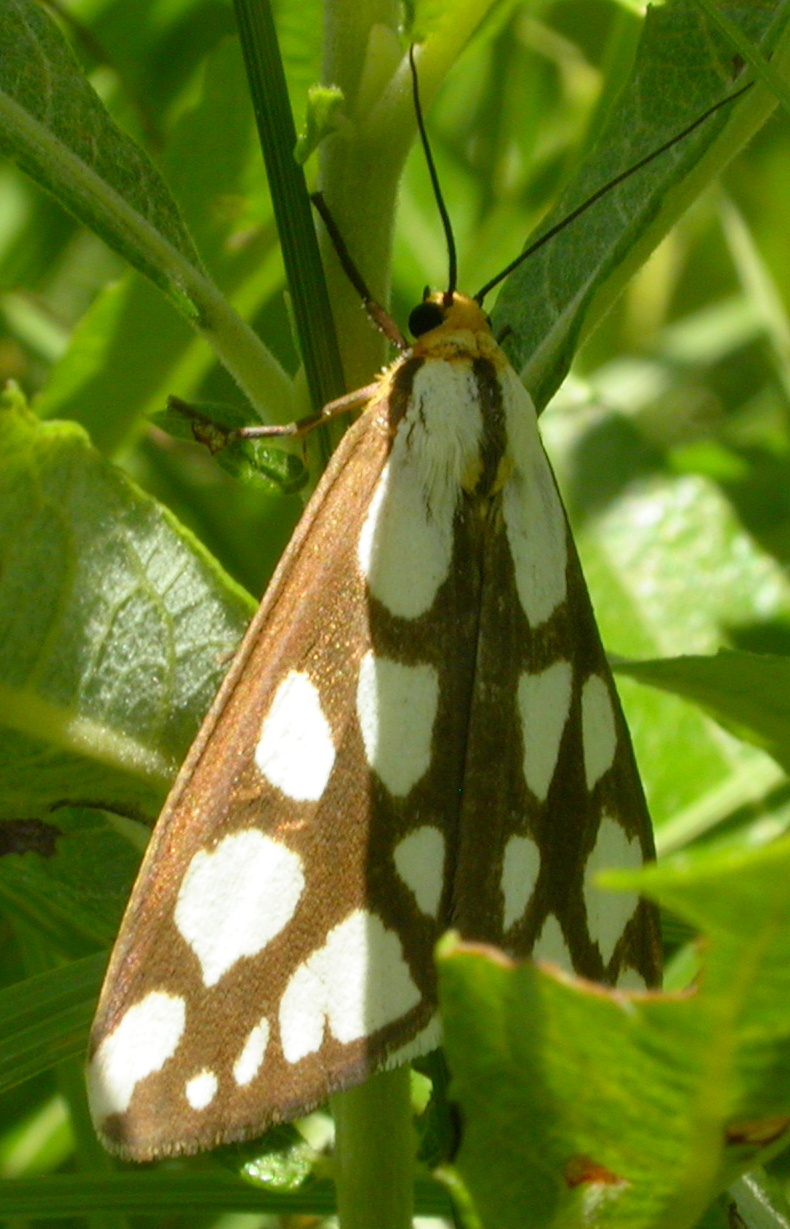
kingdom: Animalia
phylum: Arthropoda
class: Insecta
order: Lepidoptera
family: Erebidae
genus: Haploa
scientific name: Haploa confusa
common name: Confused haploa moth
